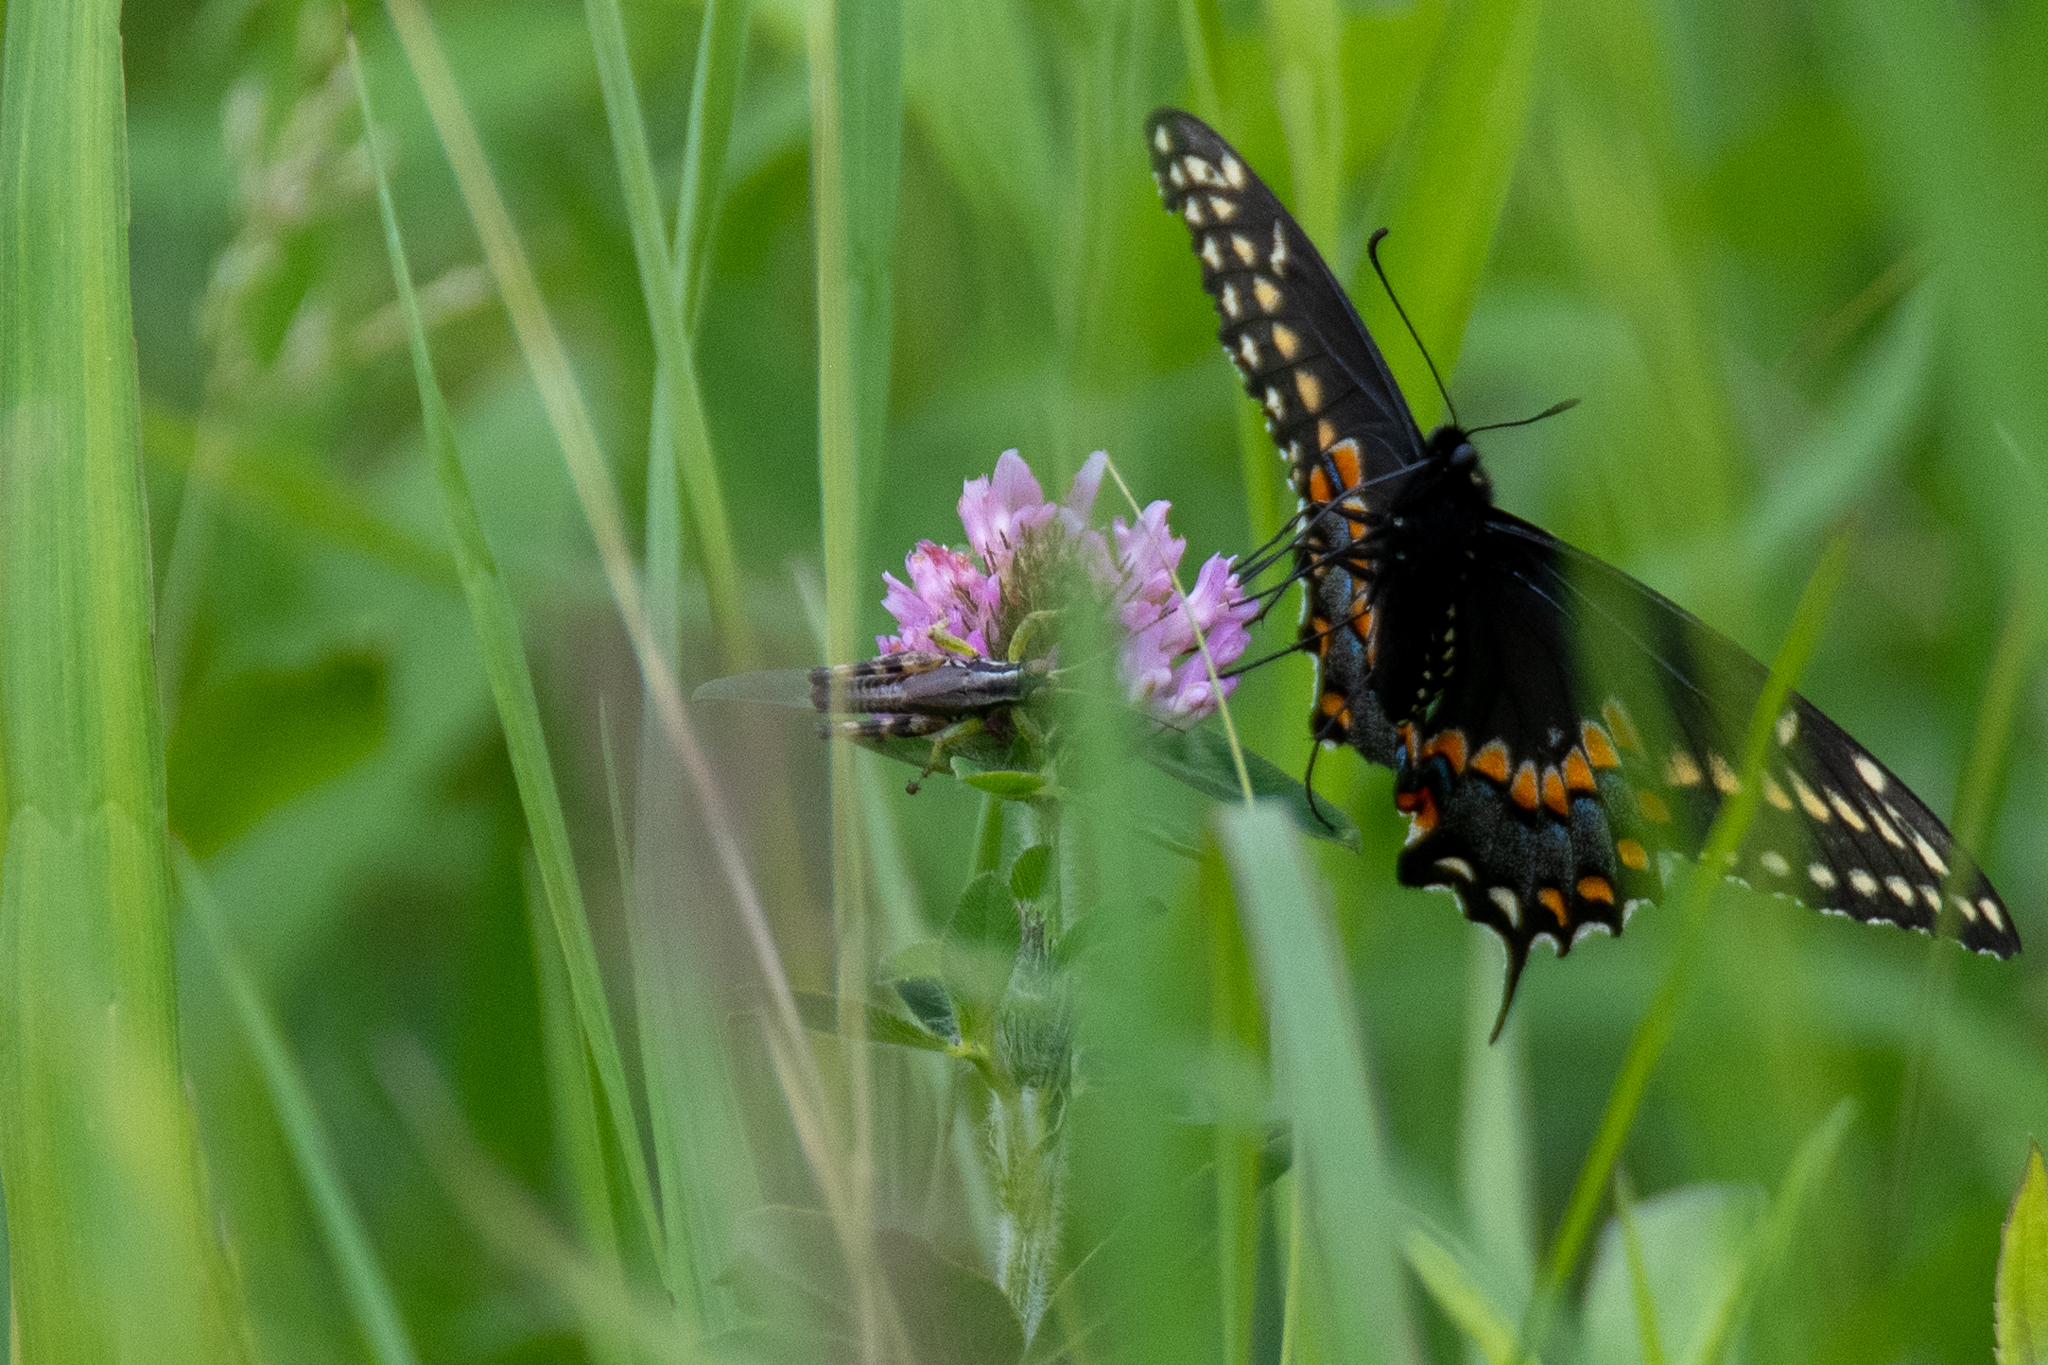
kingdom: Animalia
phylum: Arthropoda
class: Insecta
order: Lepidoptera
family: Papilionidae
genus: Papilio
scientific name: Papilio polyxenes
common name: Black swallowtail
